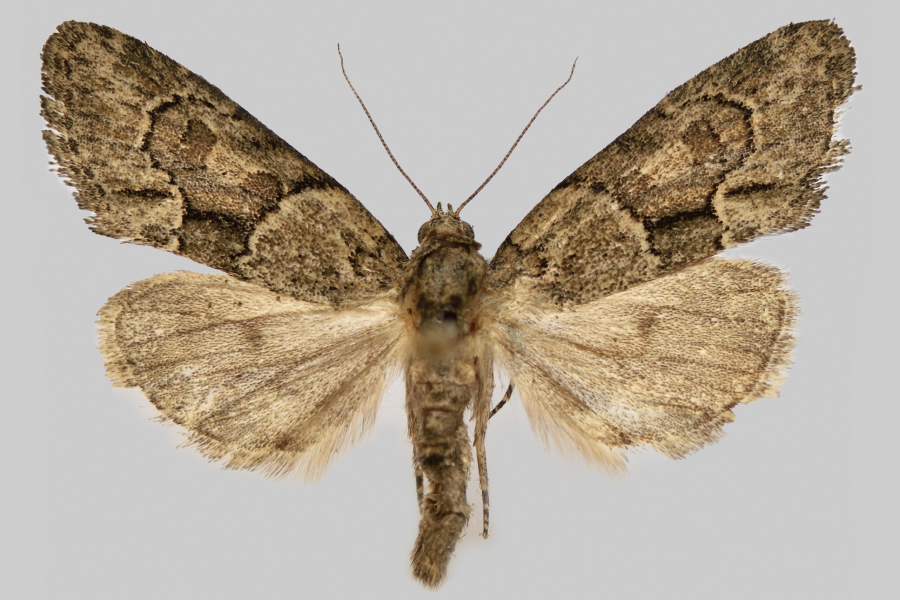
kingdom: Animalia
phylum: Arthropoda
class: Insecta
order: Lepidoptera
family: Noctuidae
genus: Cryphia
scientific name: Cryphia fraudatricula
